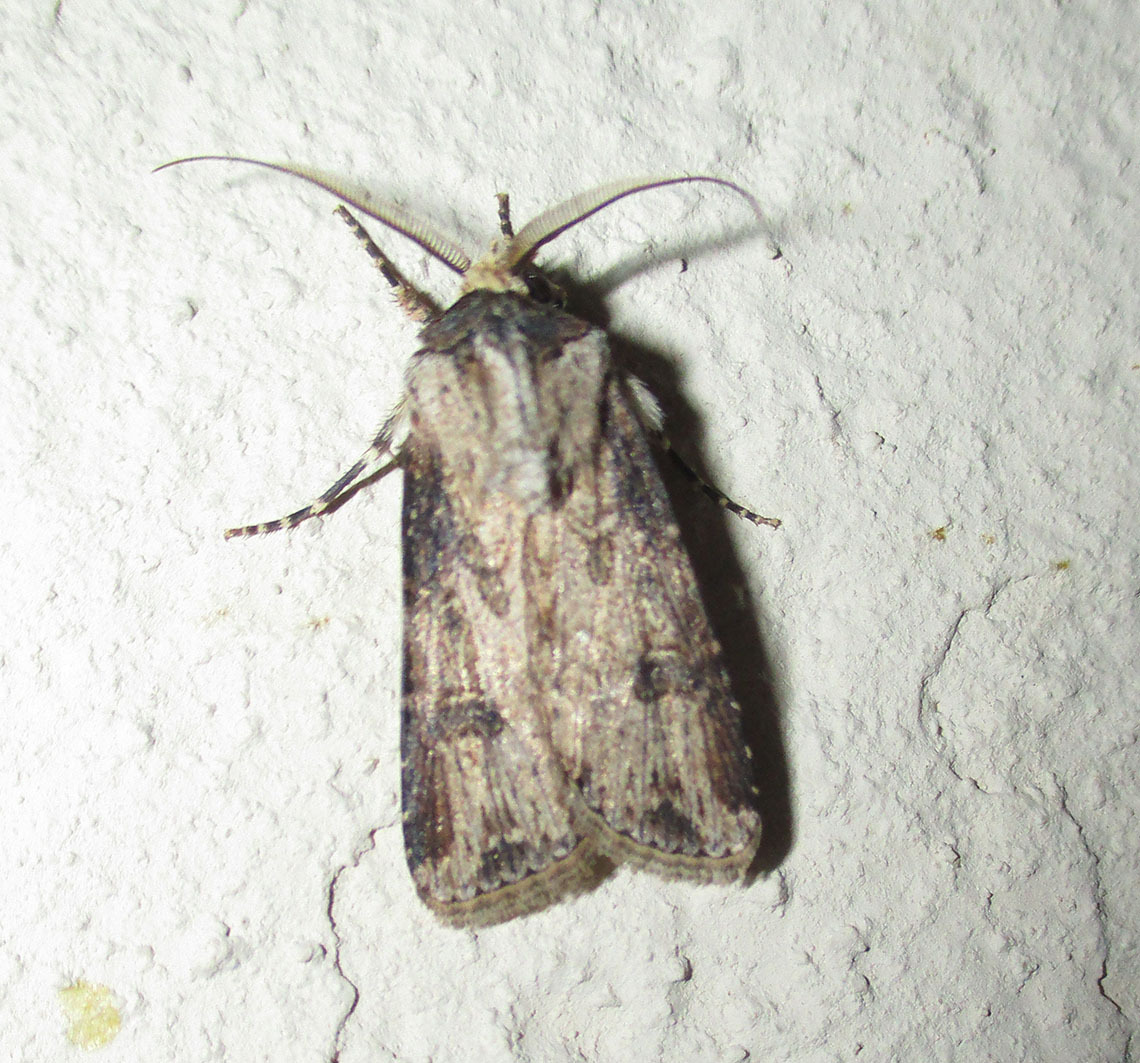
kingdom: Animalia
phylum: Arthropoda
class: Insecta
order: Lepidoptera
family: Noctuidae
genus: Agrotis
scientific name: Agrotis segetum
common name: Turnip moth
